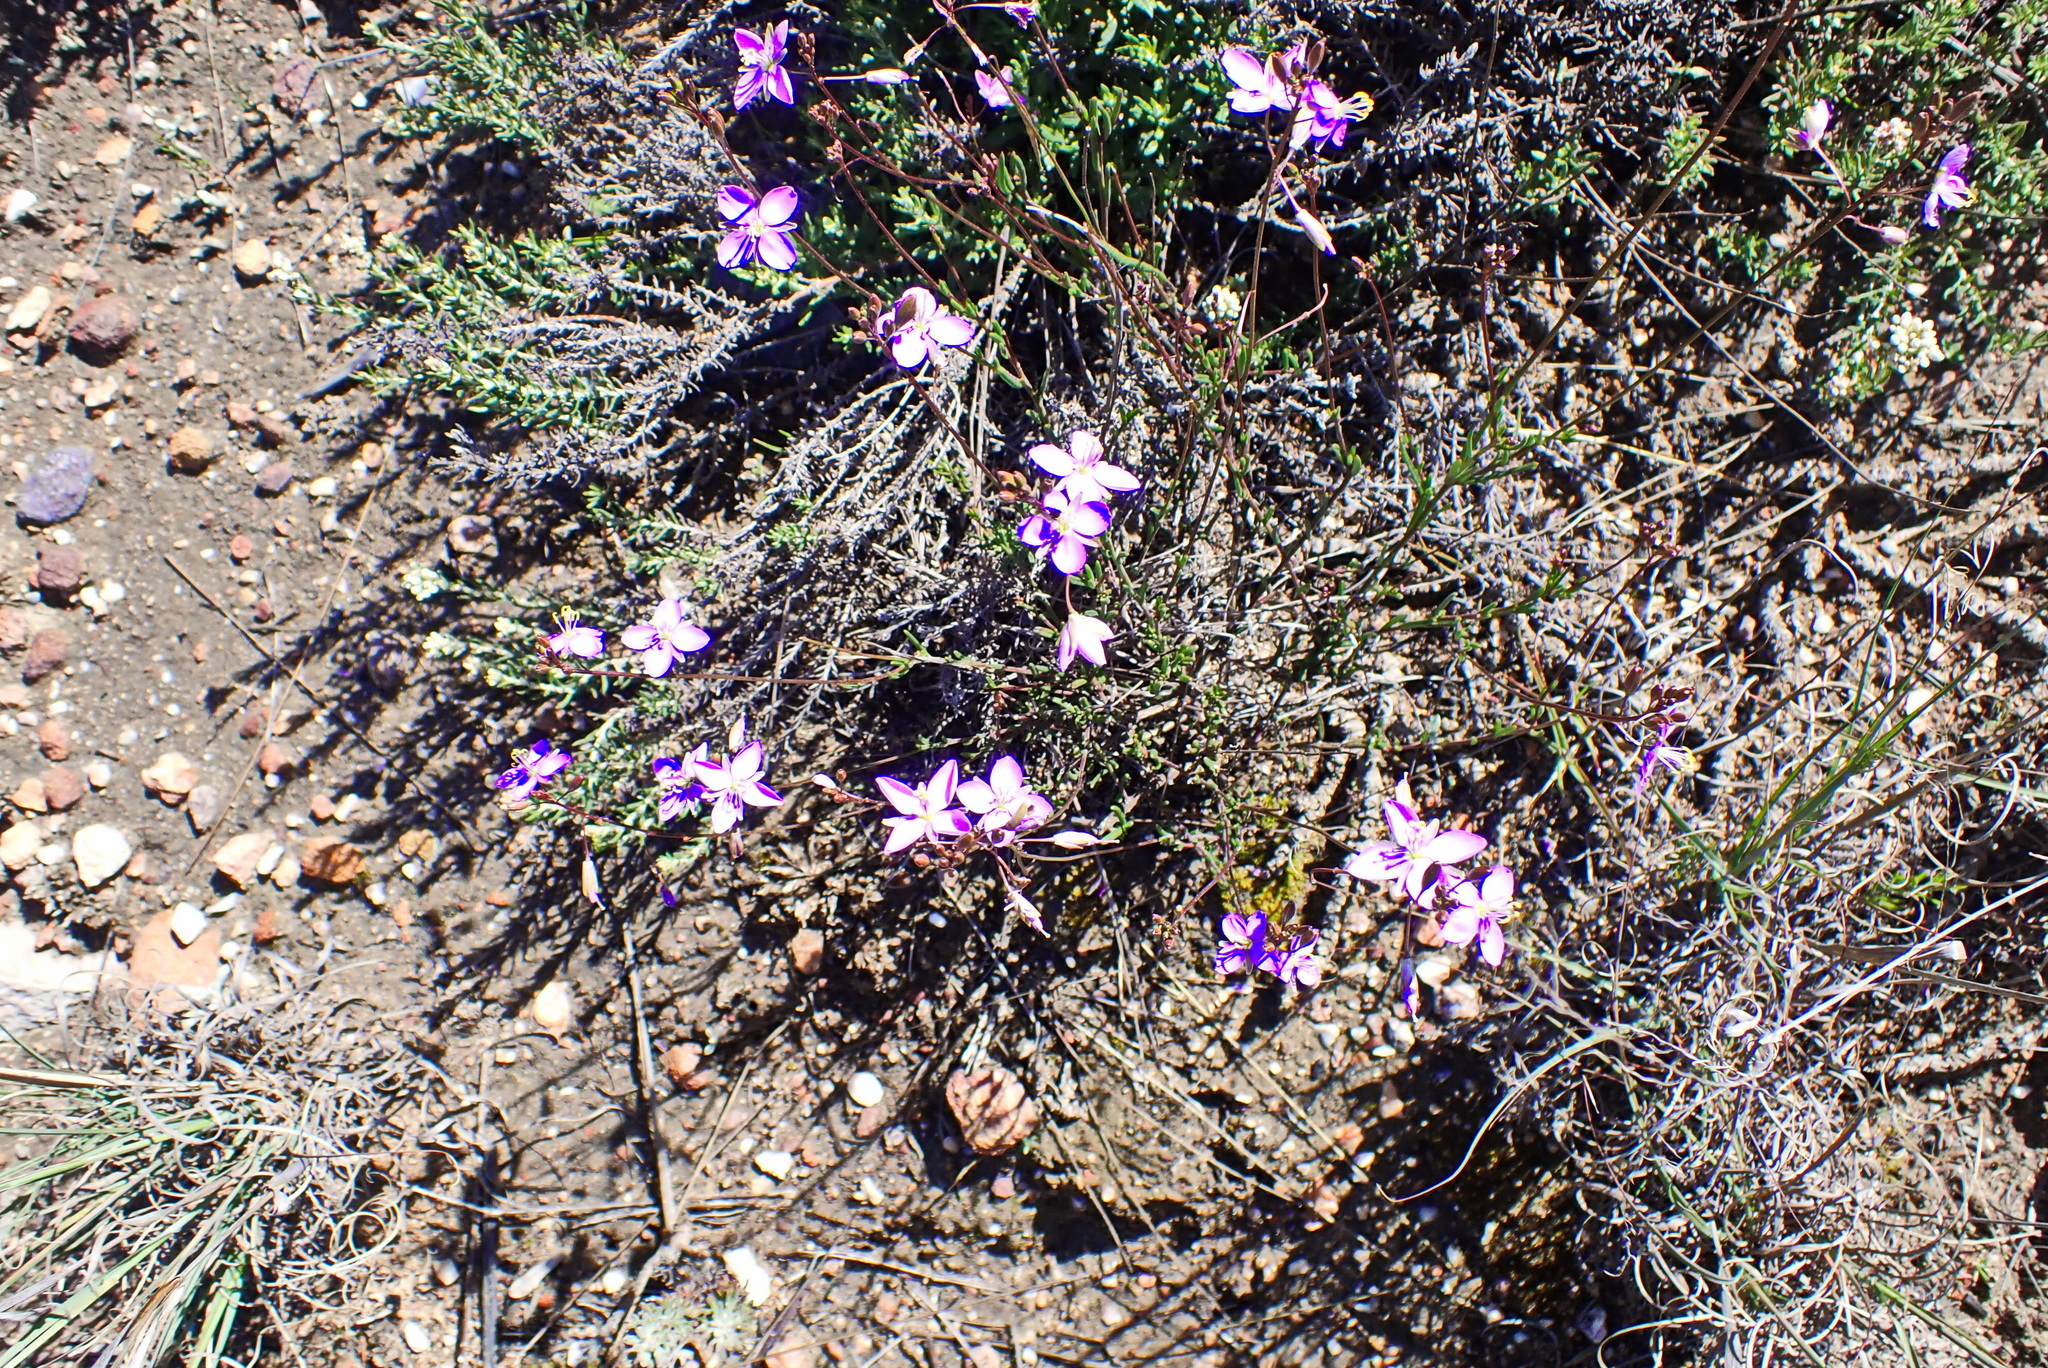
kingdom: Plantae
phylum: Tracheophyta
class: Magnoliopsida
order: Brassicales
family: Brassicaceae
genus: Heliophila
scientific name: Heliophila subulata
